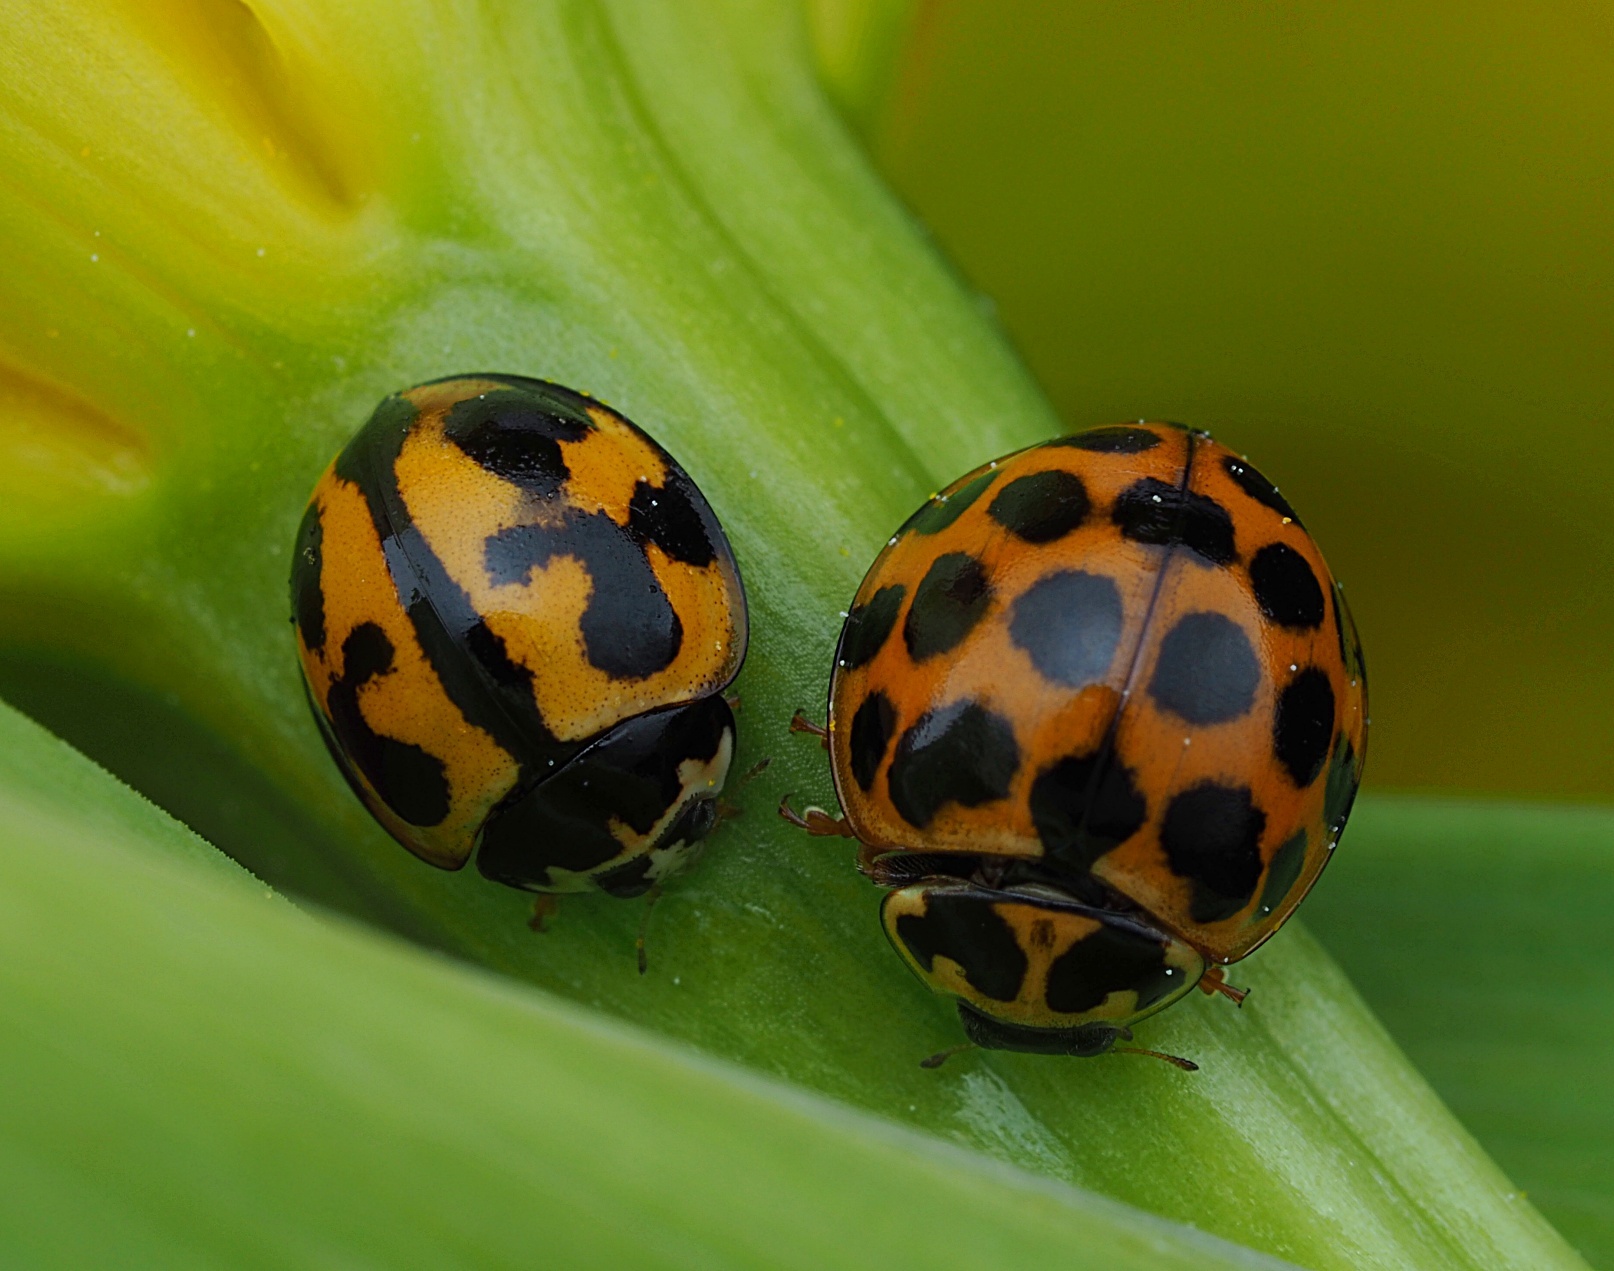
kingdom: Animalia
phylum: Arthropoda
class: Insecta
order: Coleoptera
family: Coccinellidae
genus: Coelophora
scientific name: Coelophora inaequalis
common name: Common australian lady beetle
